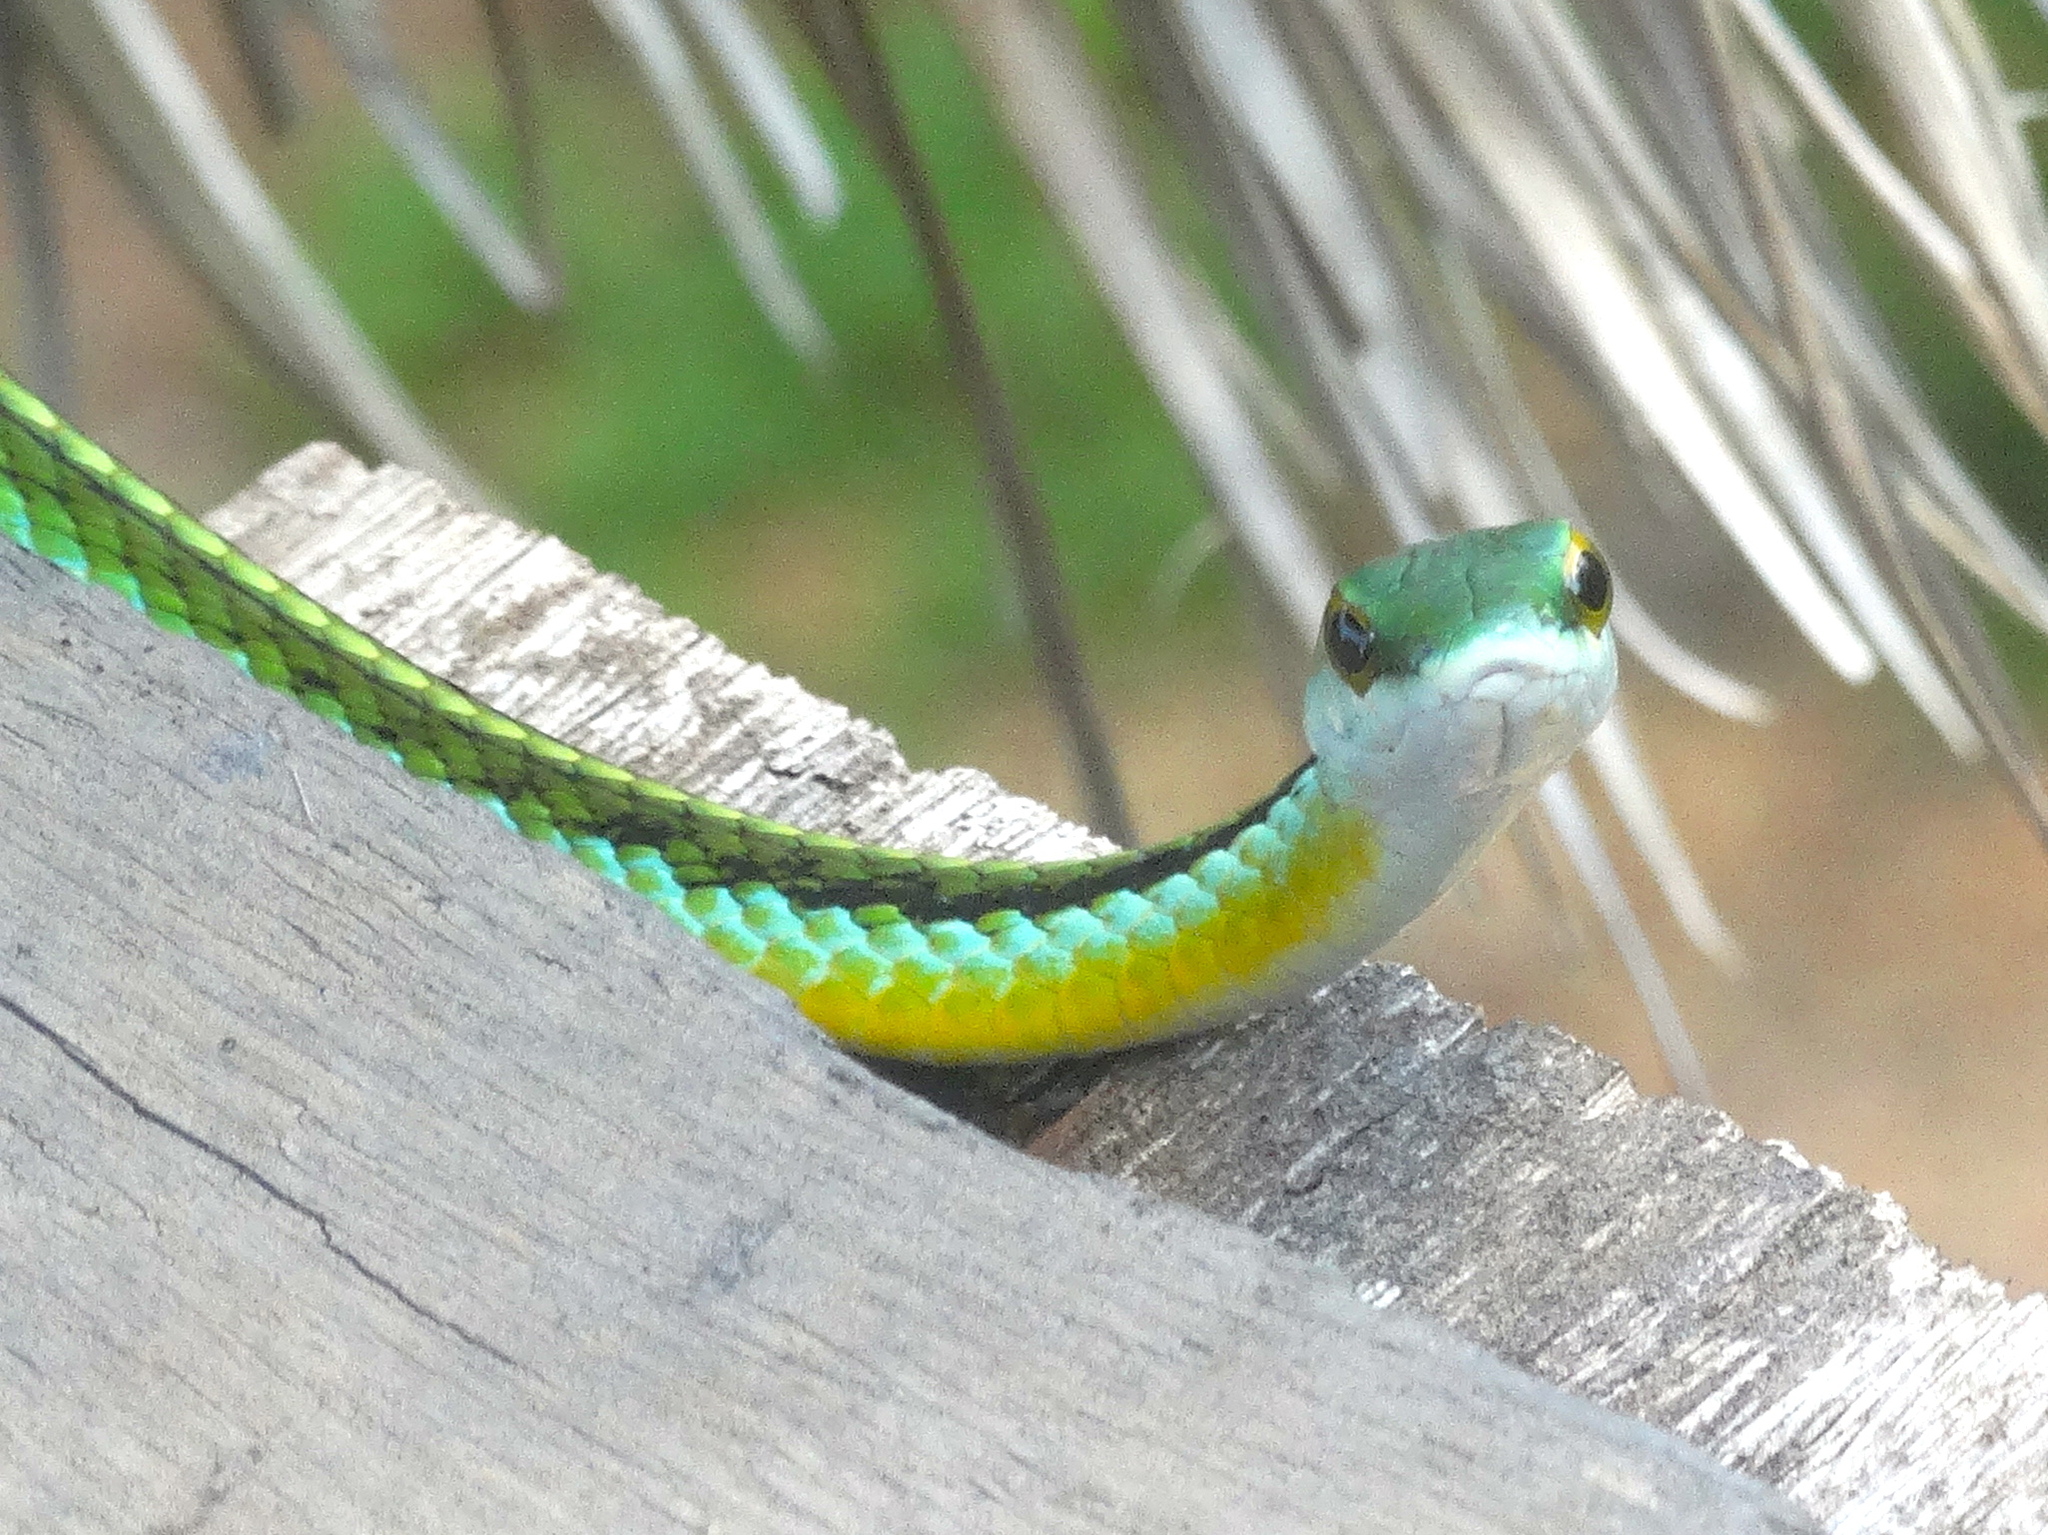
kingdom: Animalia
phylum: Chordata
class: Squamata
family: Colubridae
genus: Leptophis
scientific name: Leptophis diplotropis
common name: Pacific coast parrot snake
